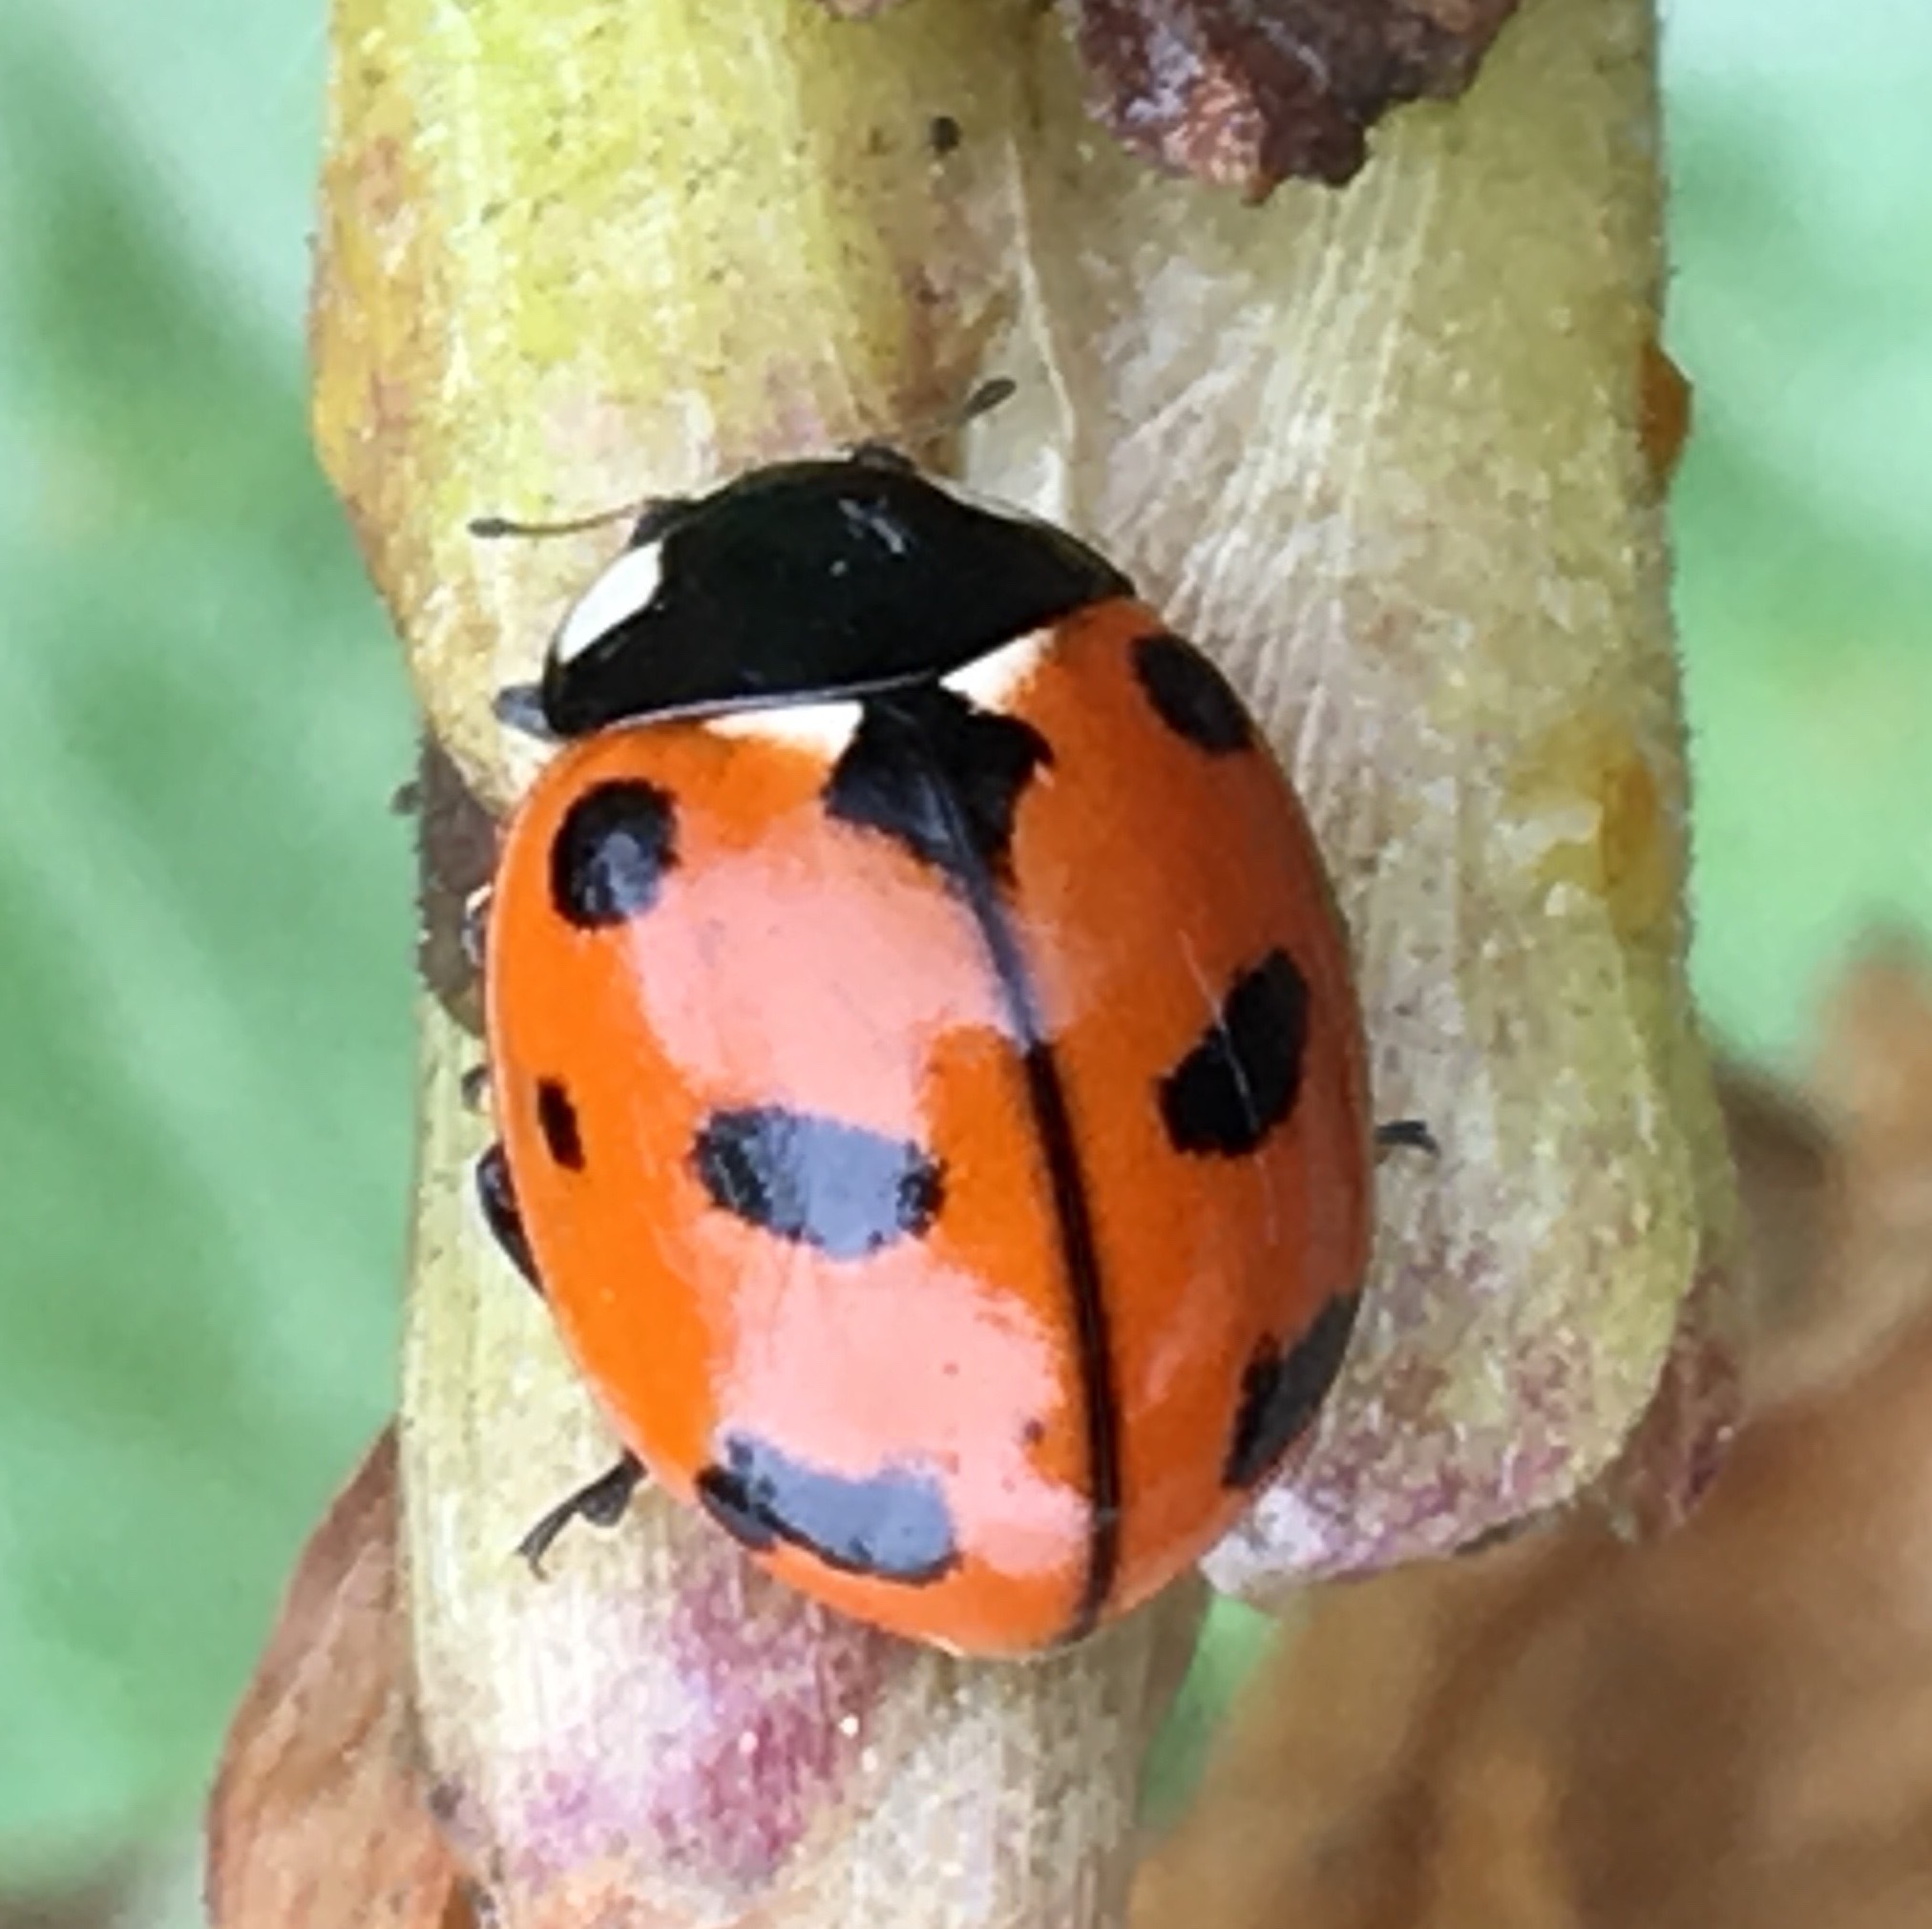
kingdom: Animalia
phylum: Arthropoda
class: Insecta
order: Coleoptera
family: Coccinellidae
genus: Coccinella
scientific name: Coccinella californica
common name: Lady beetle
